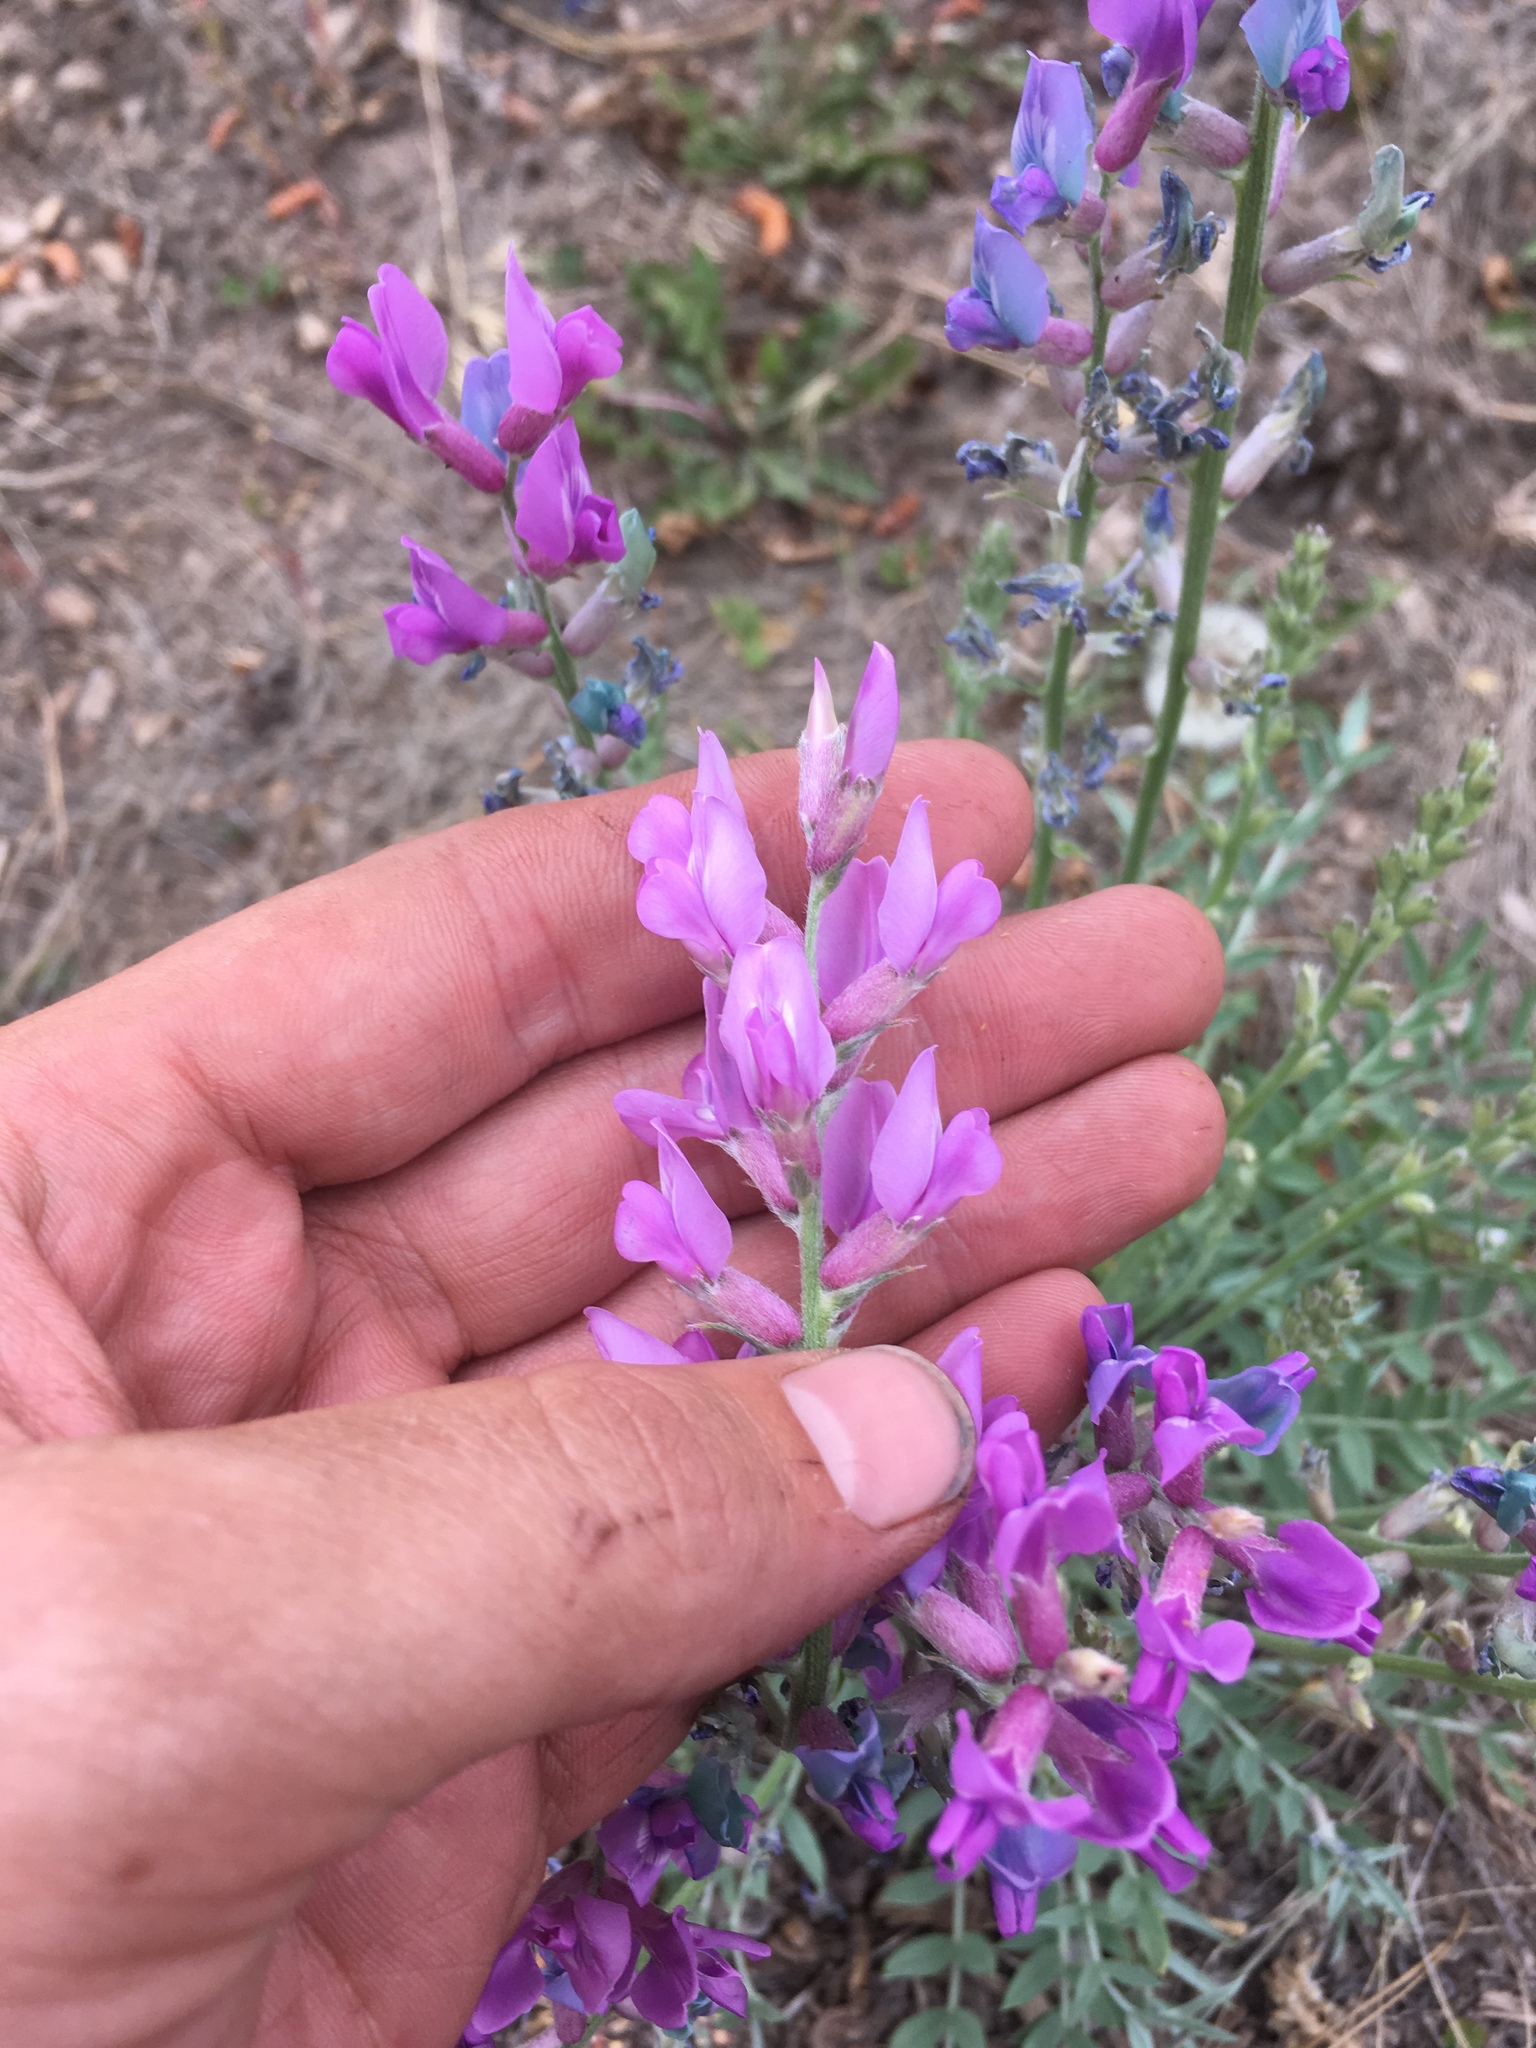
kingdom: Plantae
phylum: Tracheophyta
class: Magnoliopsida
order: Fabales
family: Fabaceae
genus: Oxytropis
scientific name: Oxytropis lambertii
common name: Purple locoweed
